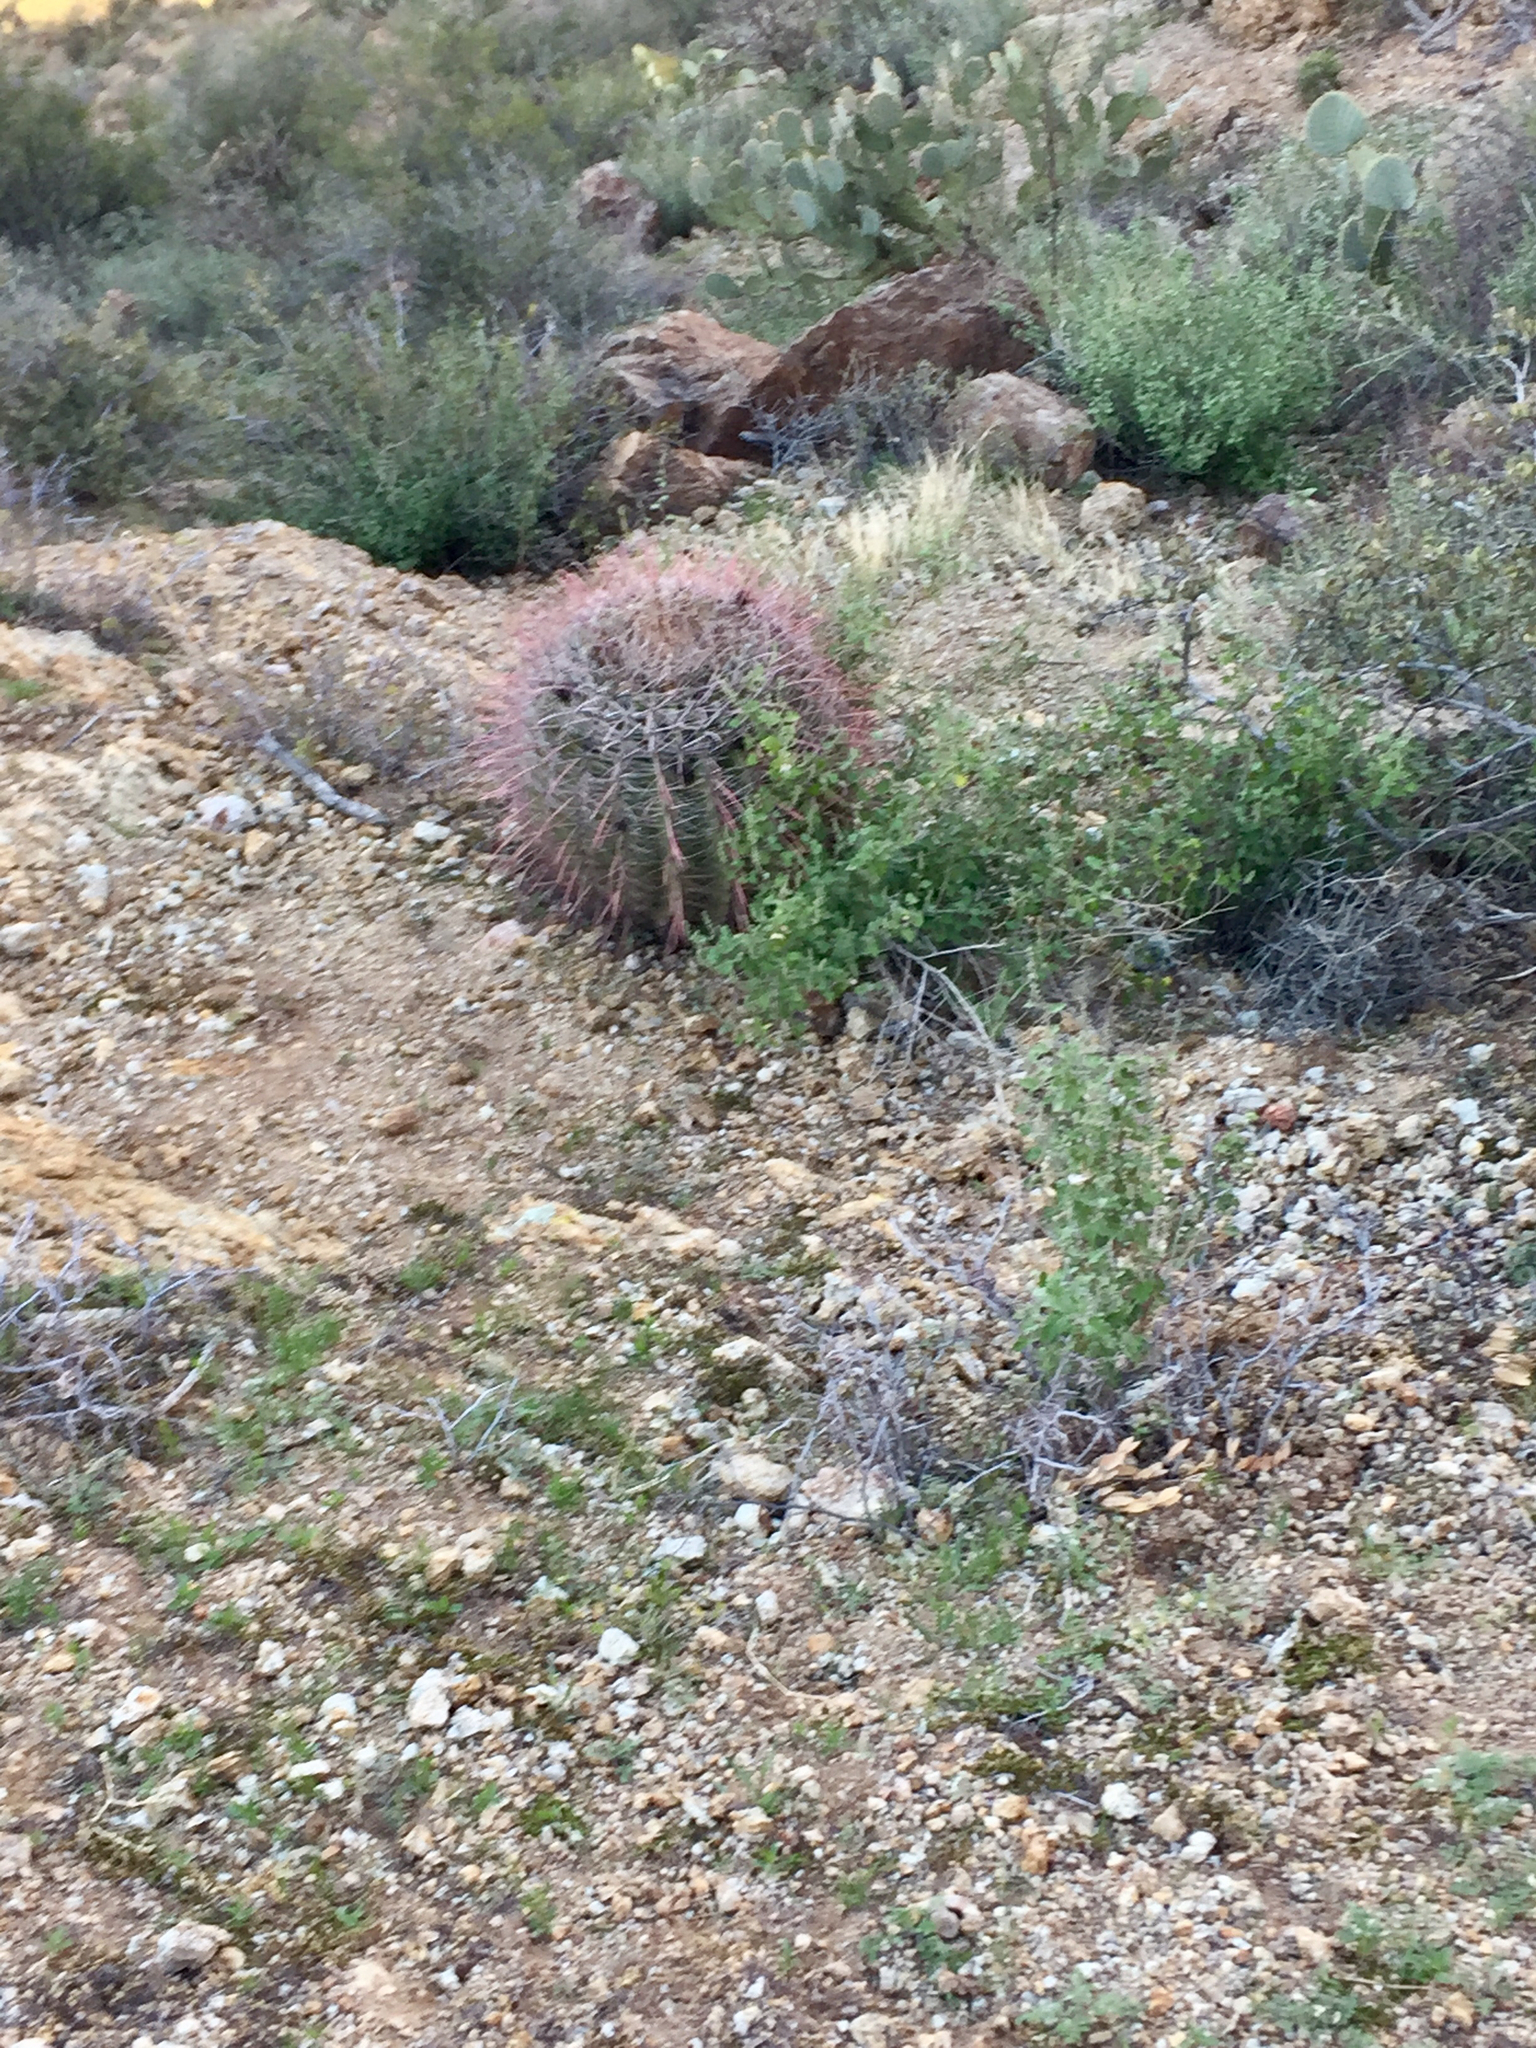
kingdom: Plantae
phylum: Tracheophyta
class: Magnoliopsida
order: Caryophyllales
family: Cactaceae
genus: Ferocactus
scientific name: Ferocactus wislizeni
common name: Candy barrel cactus
